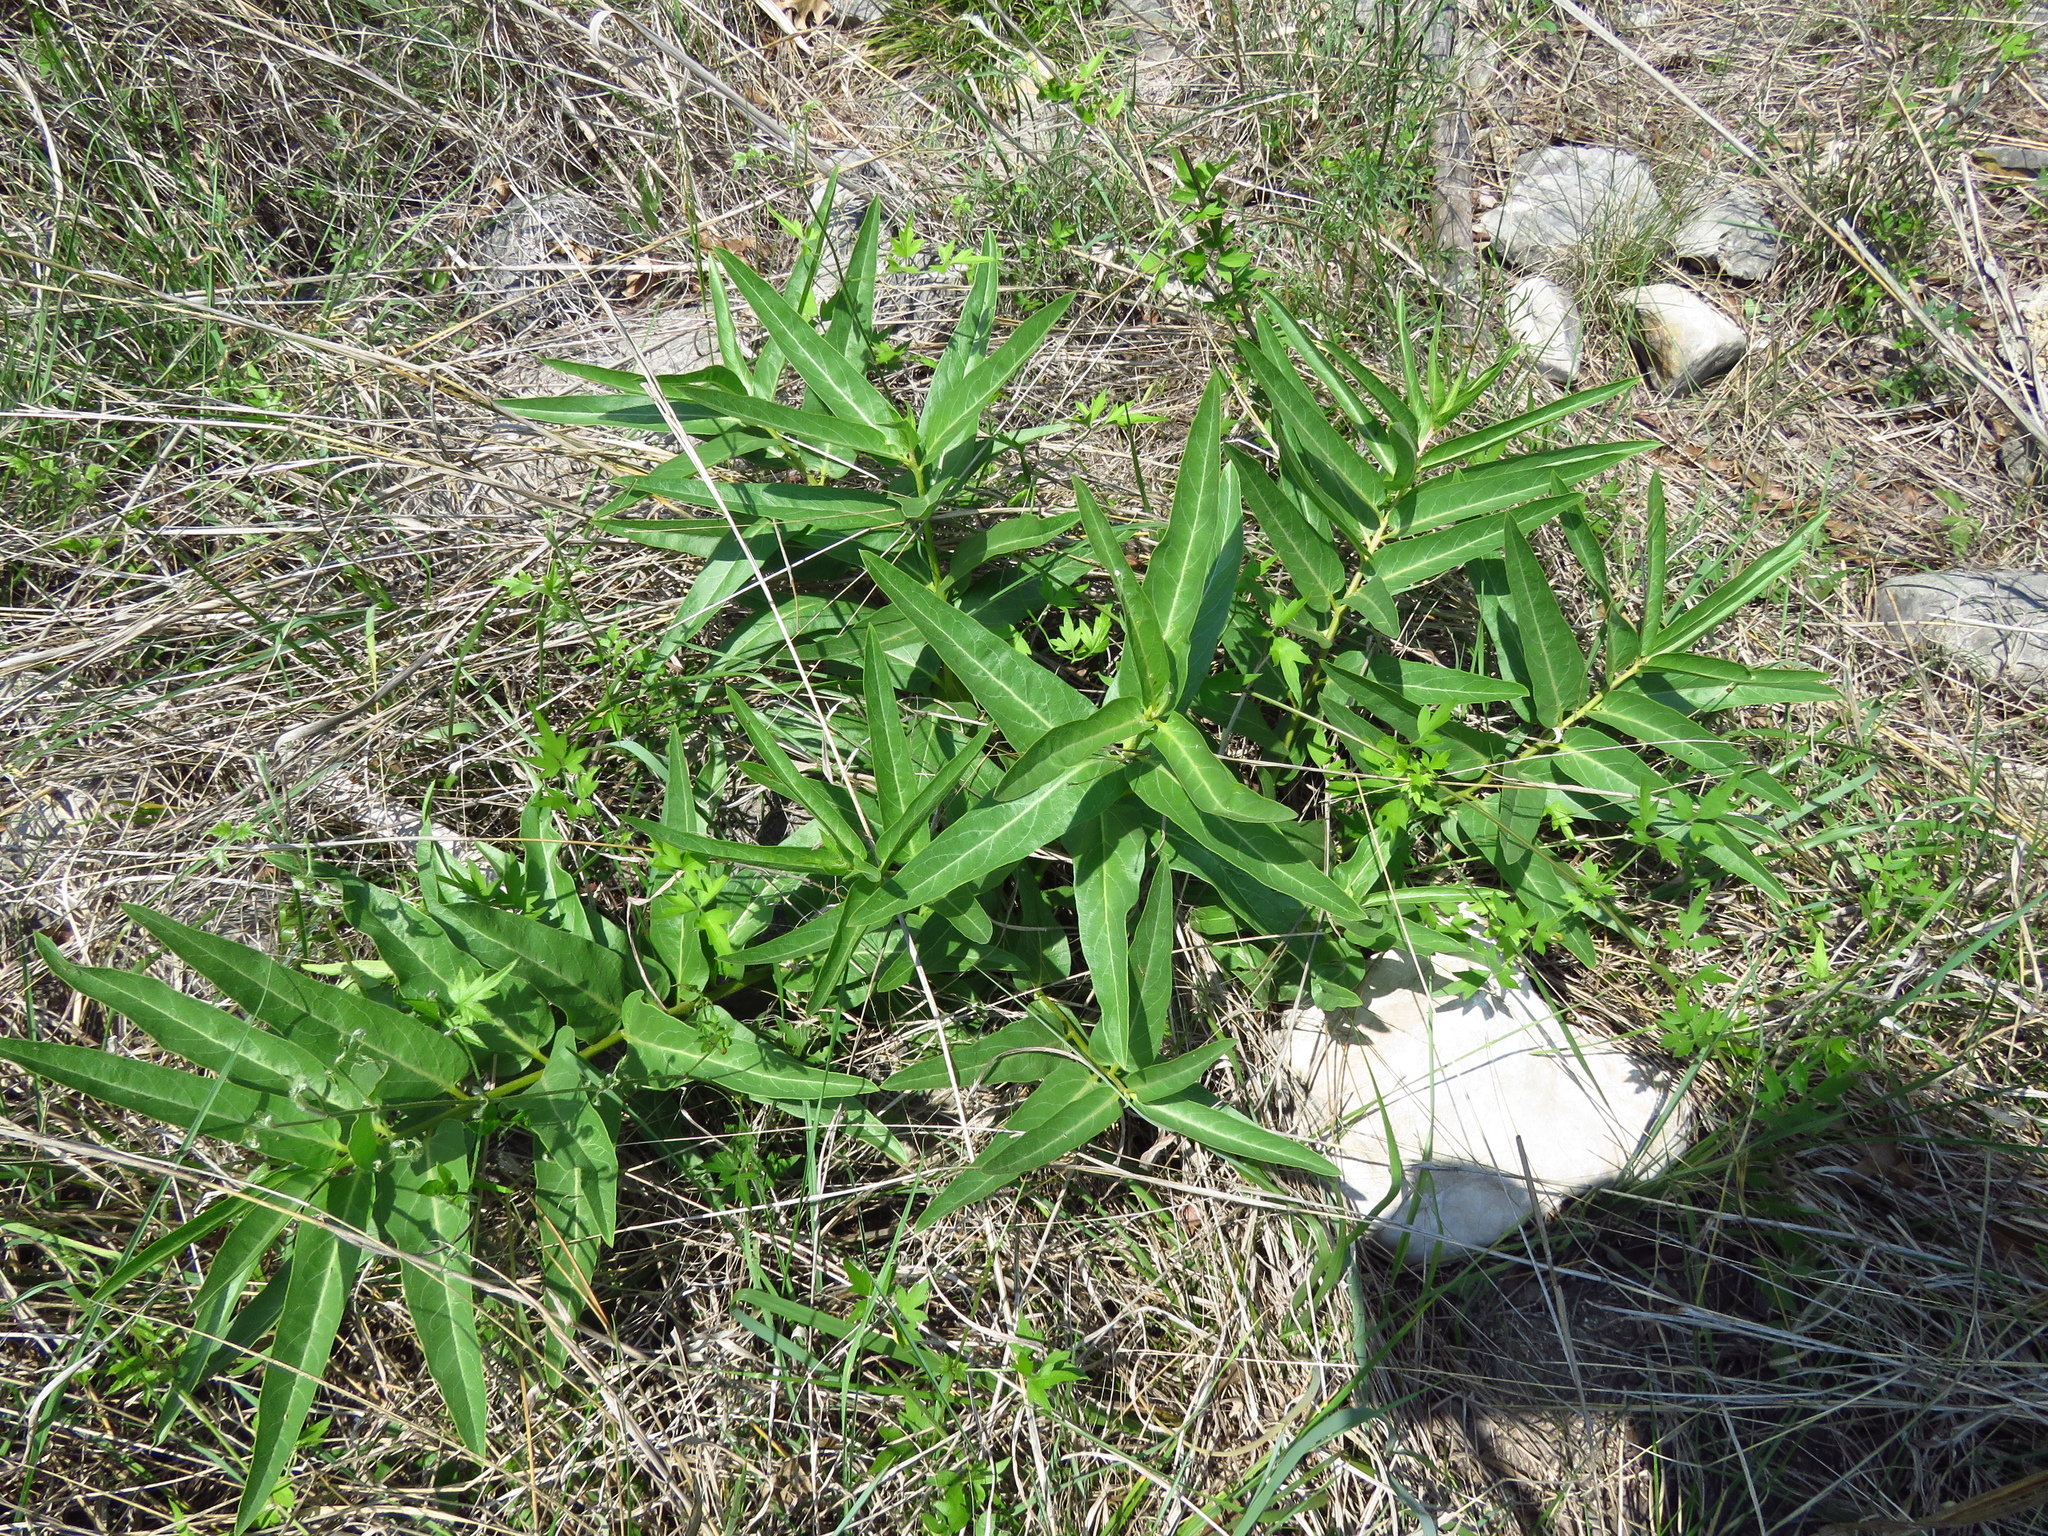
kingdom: Plantae
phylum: Tracheophyta
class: Magnoliopsida
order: Gentianales
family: Apocynaceae
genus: Asclepias
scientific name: Asclepias asperula
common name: Antelope horns
